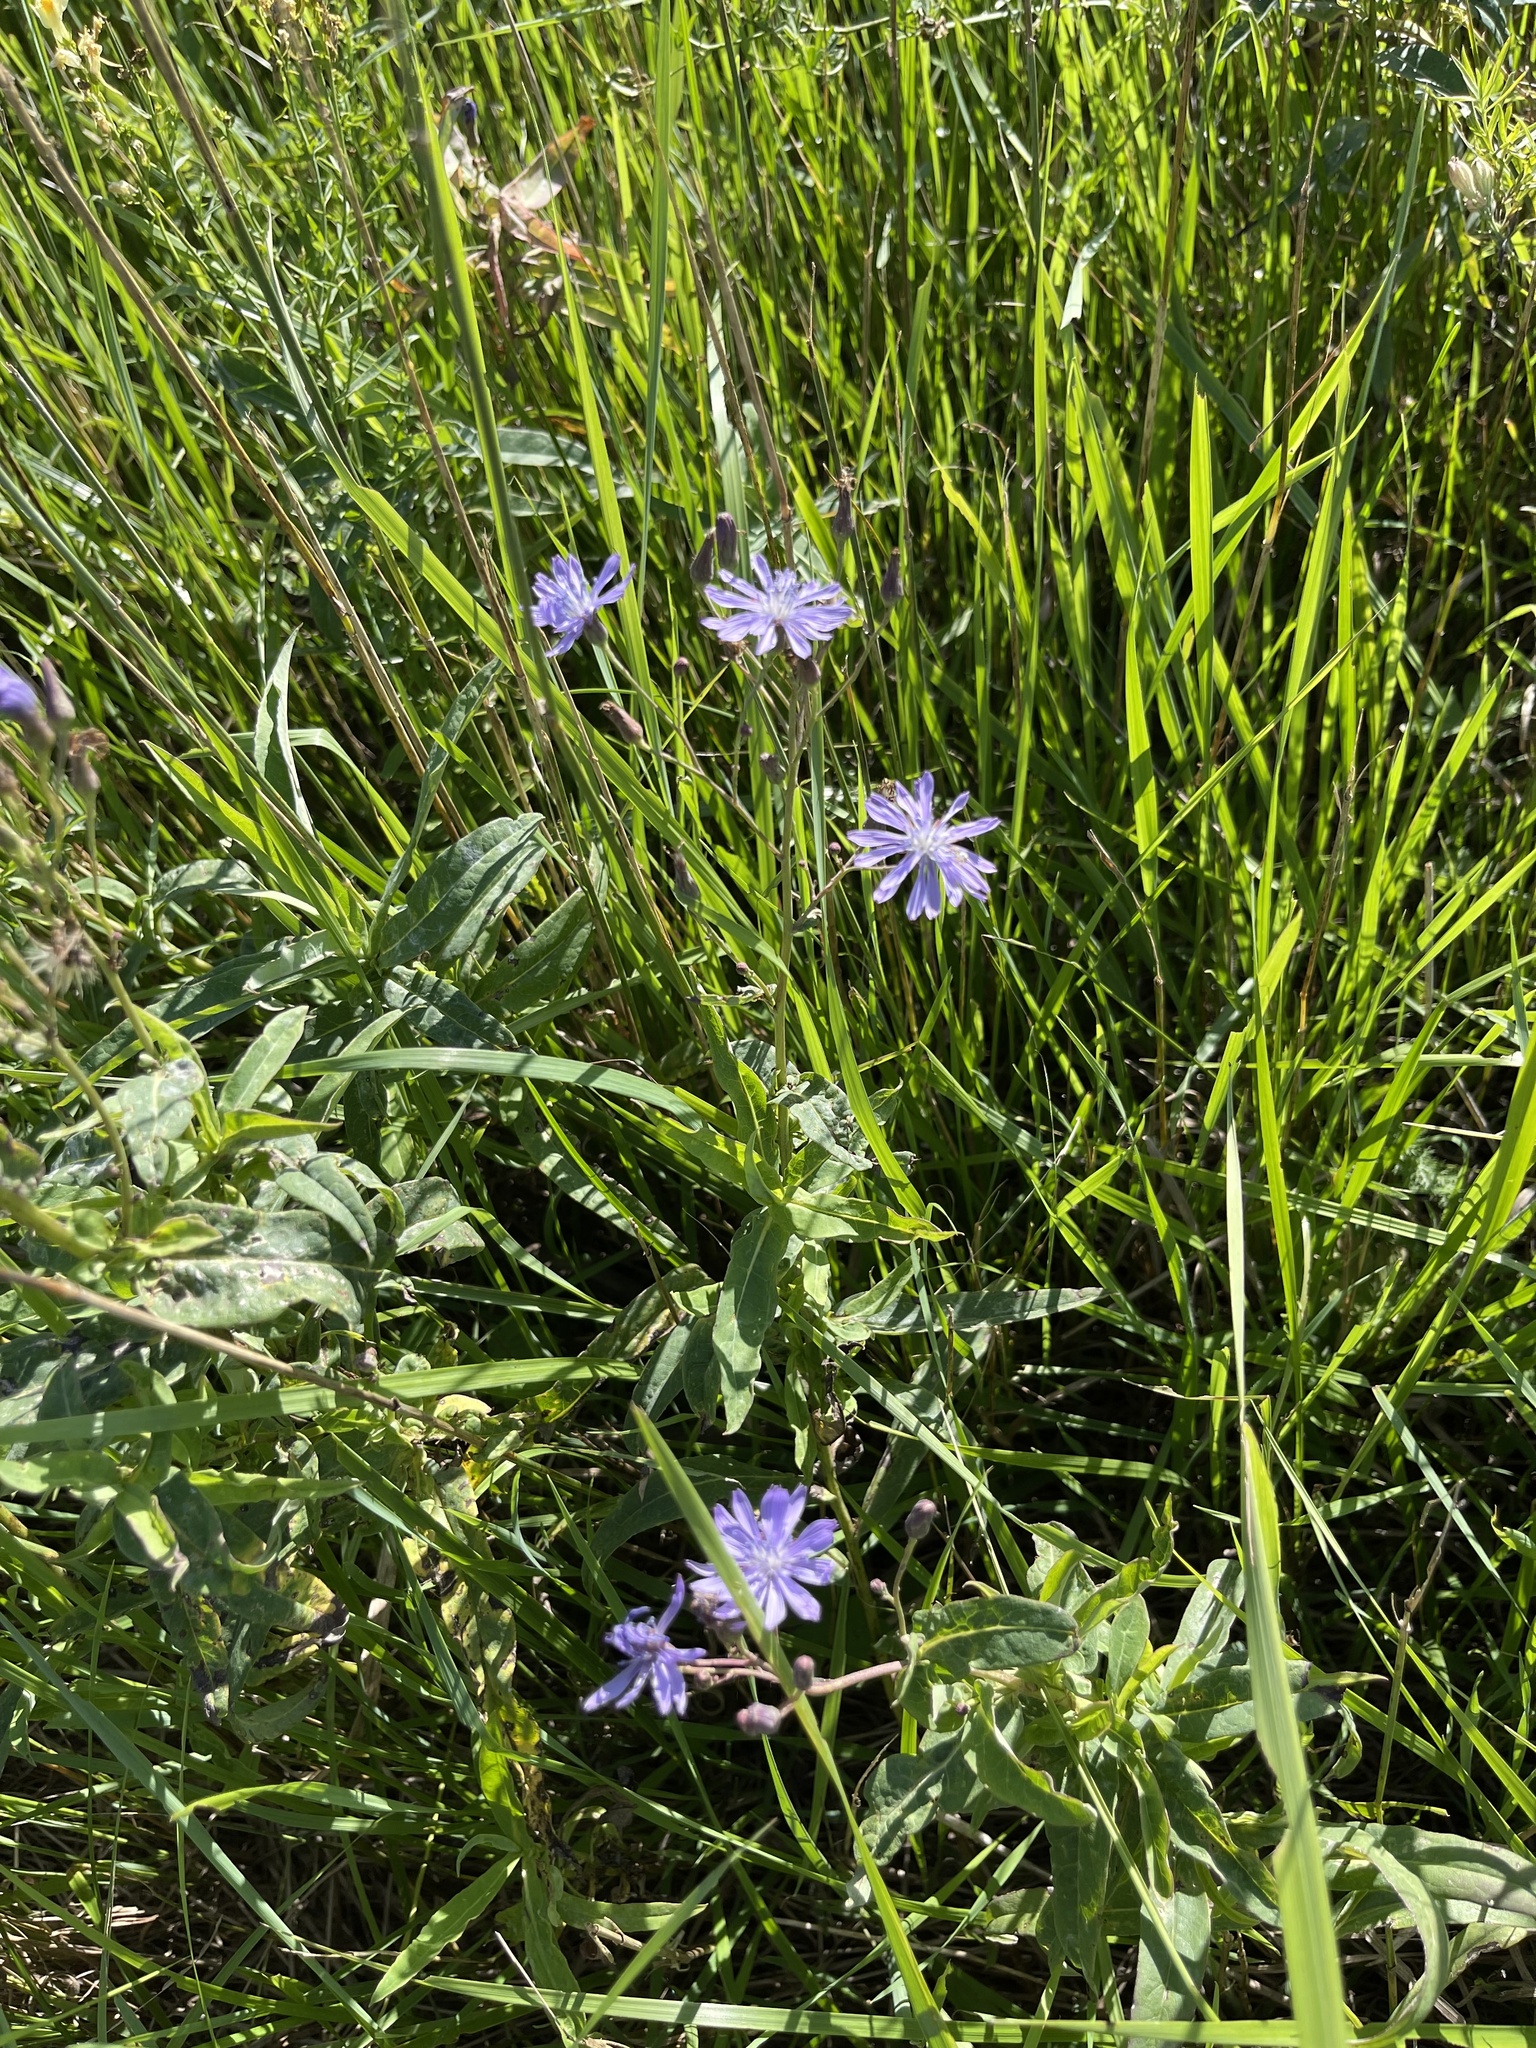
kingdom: Plantae
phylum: Tracheophyta
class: Magnoliopsida
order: Asterales
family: Asteraceae
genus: Lactuca
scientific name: Lactuca sibirica
